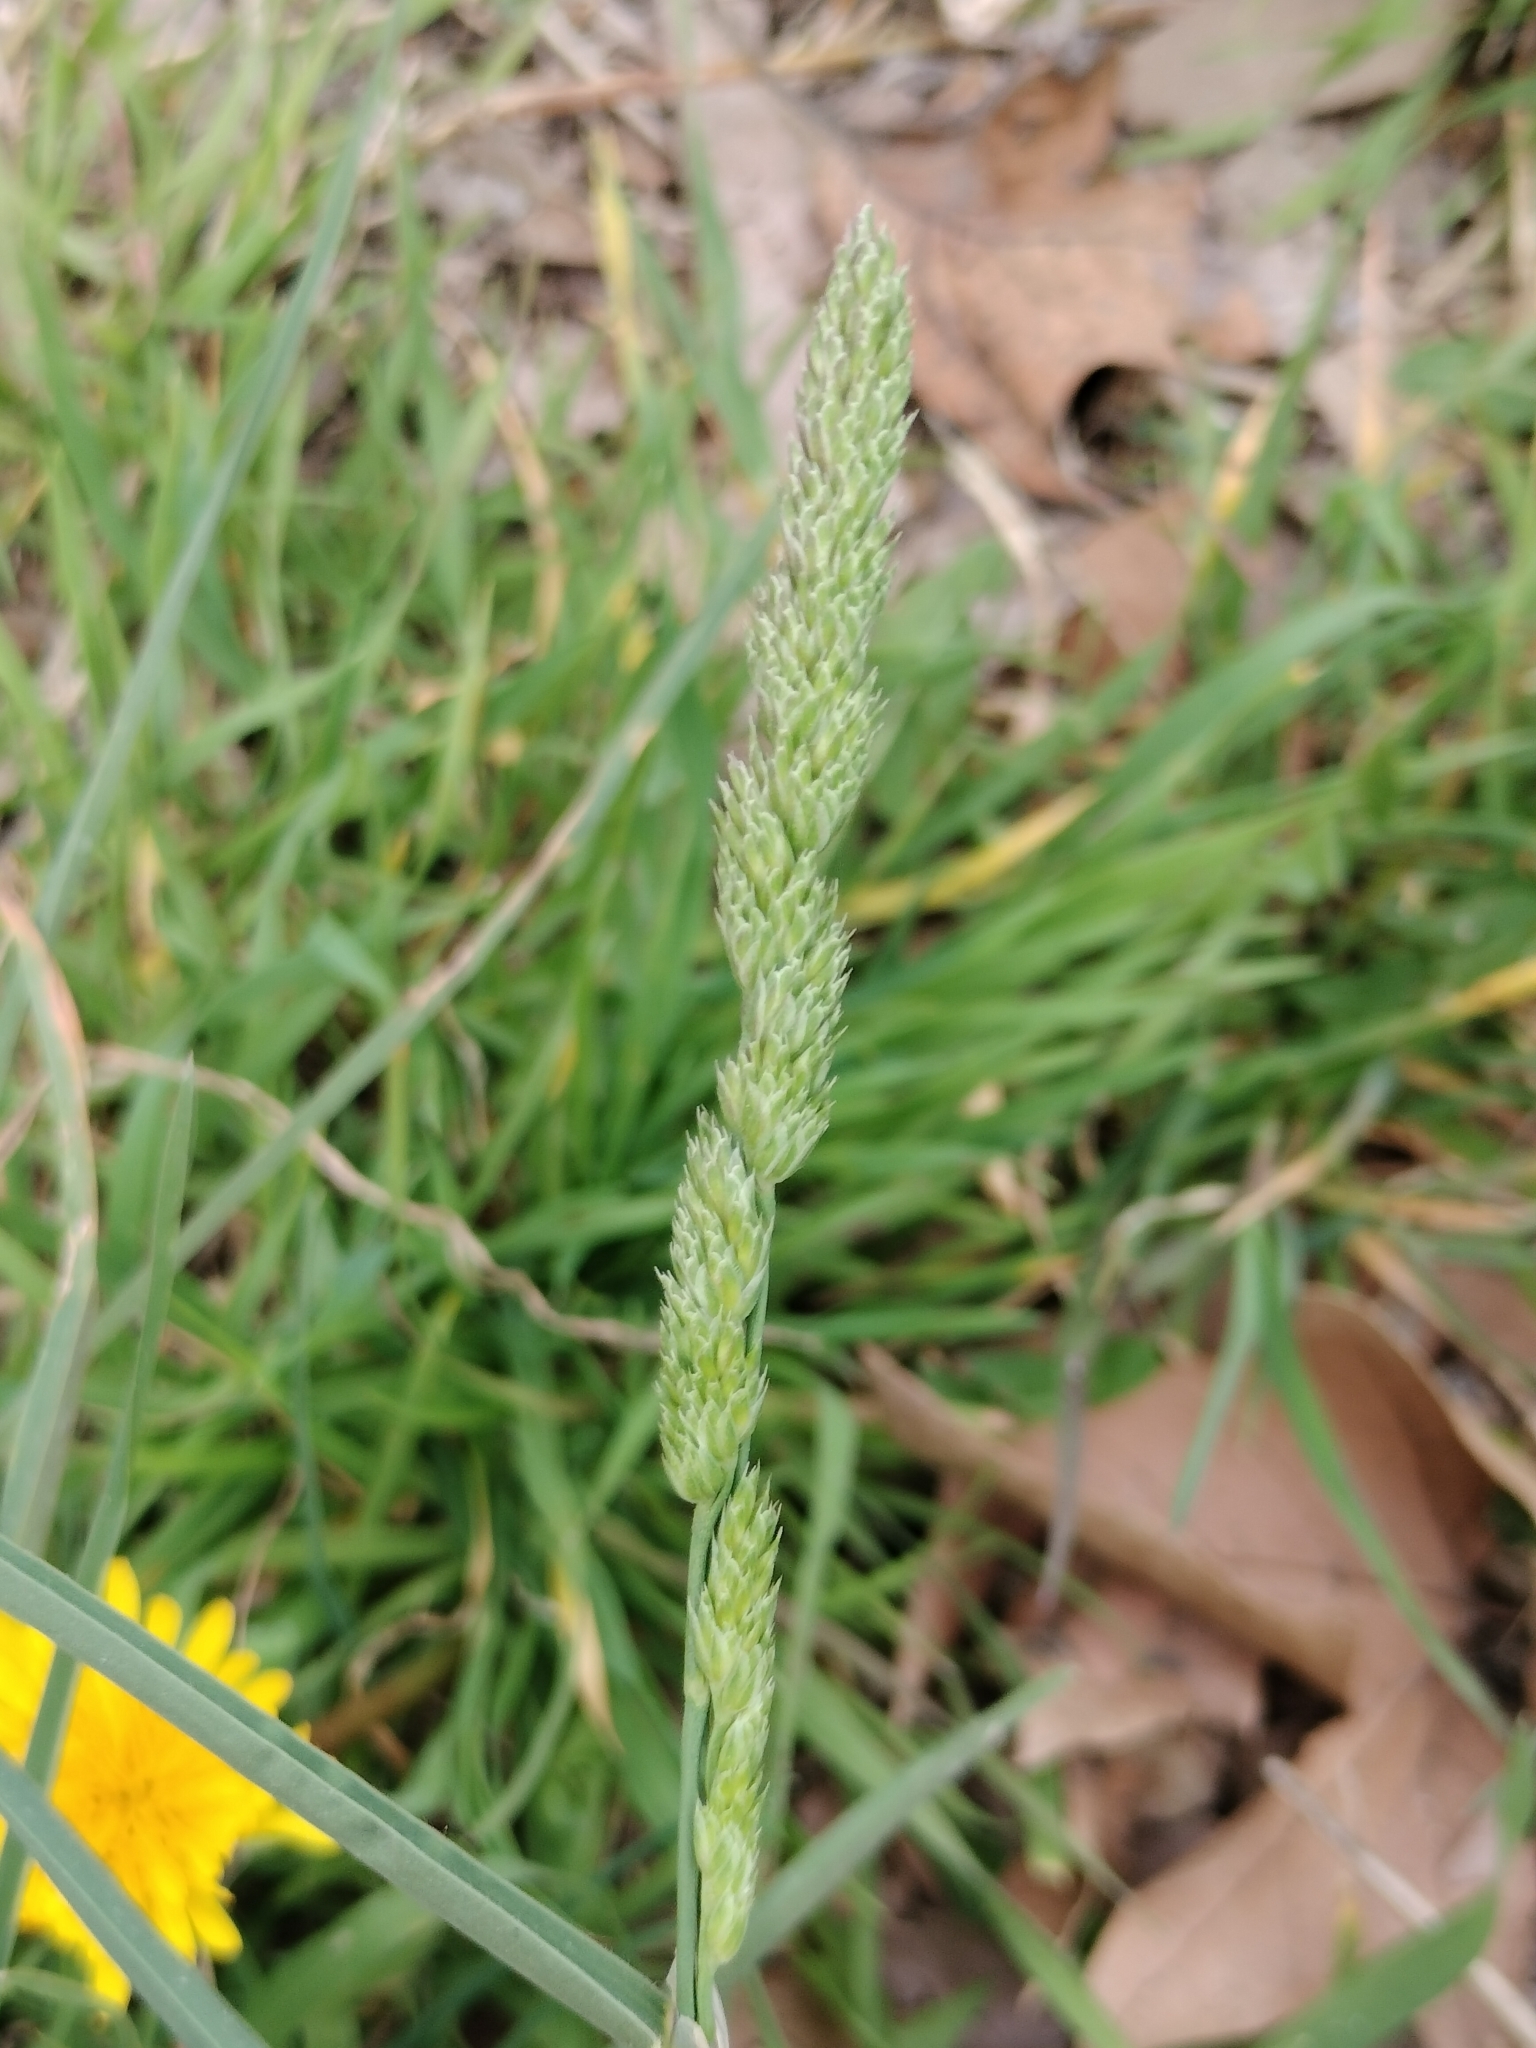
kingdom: Plantae
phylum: Tracheophyta
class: Liliopsida
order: Poales
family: Poaceae
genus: Dactylis
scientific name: Dactylis glomerata
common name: Orchardgrass
